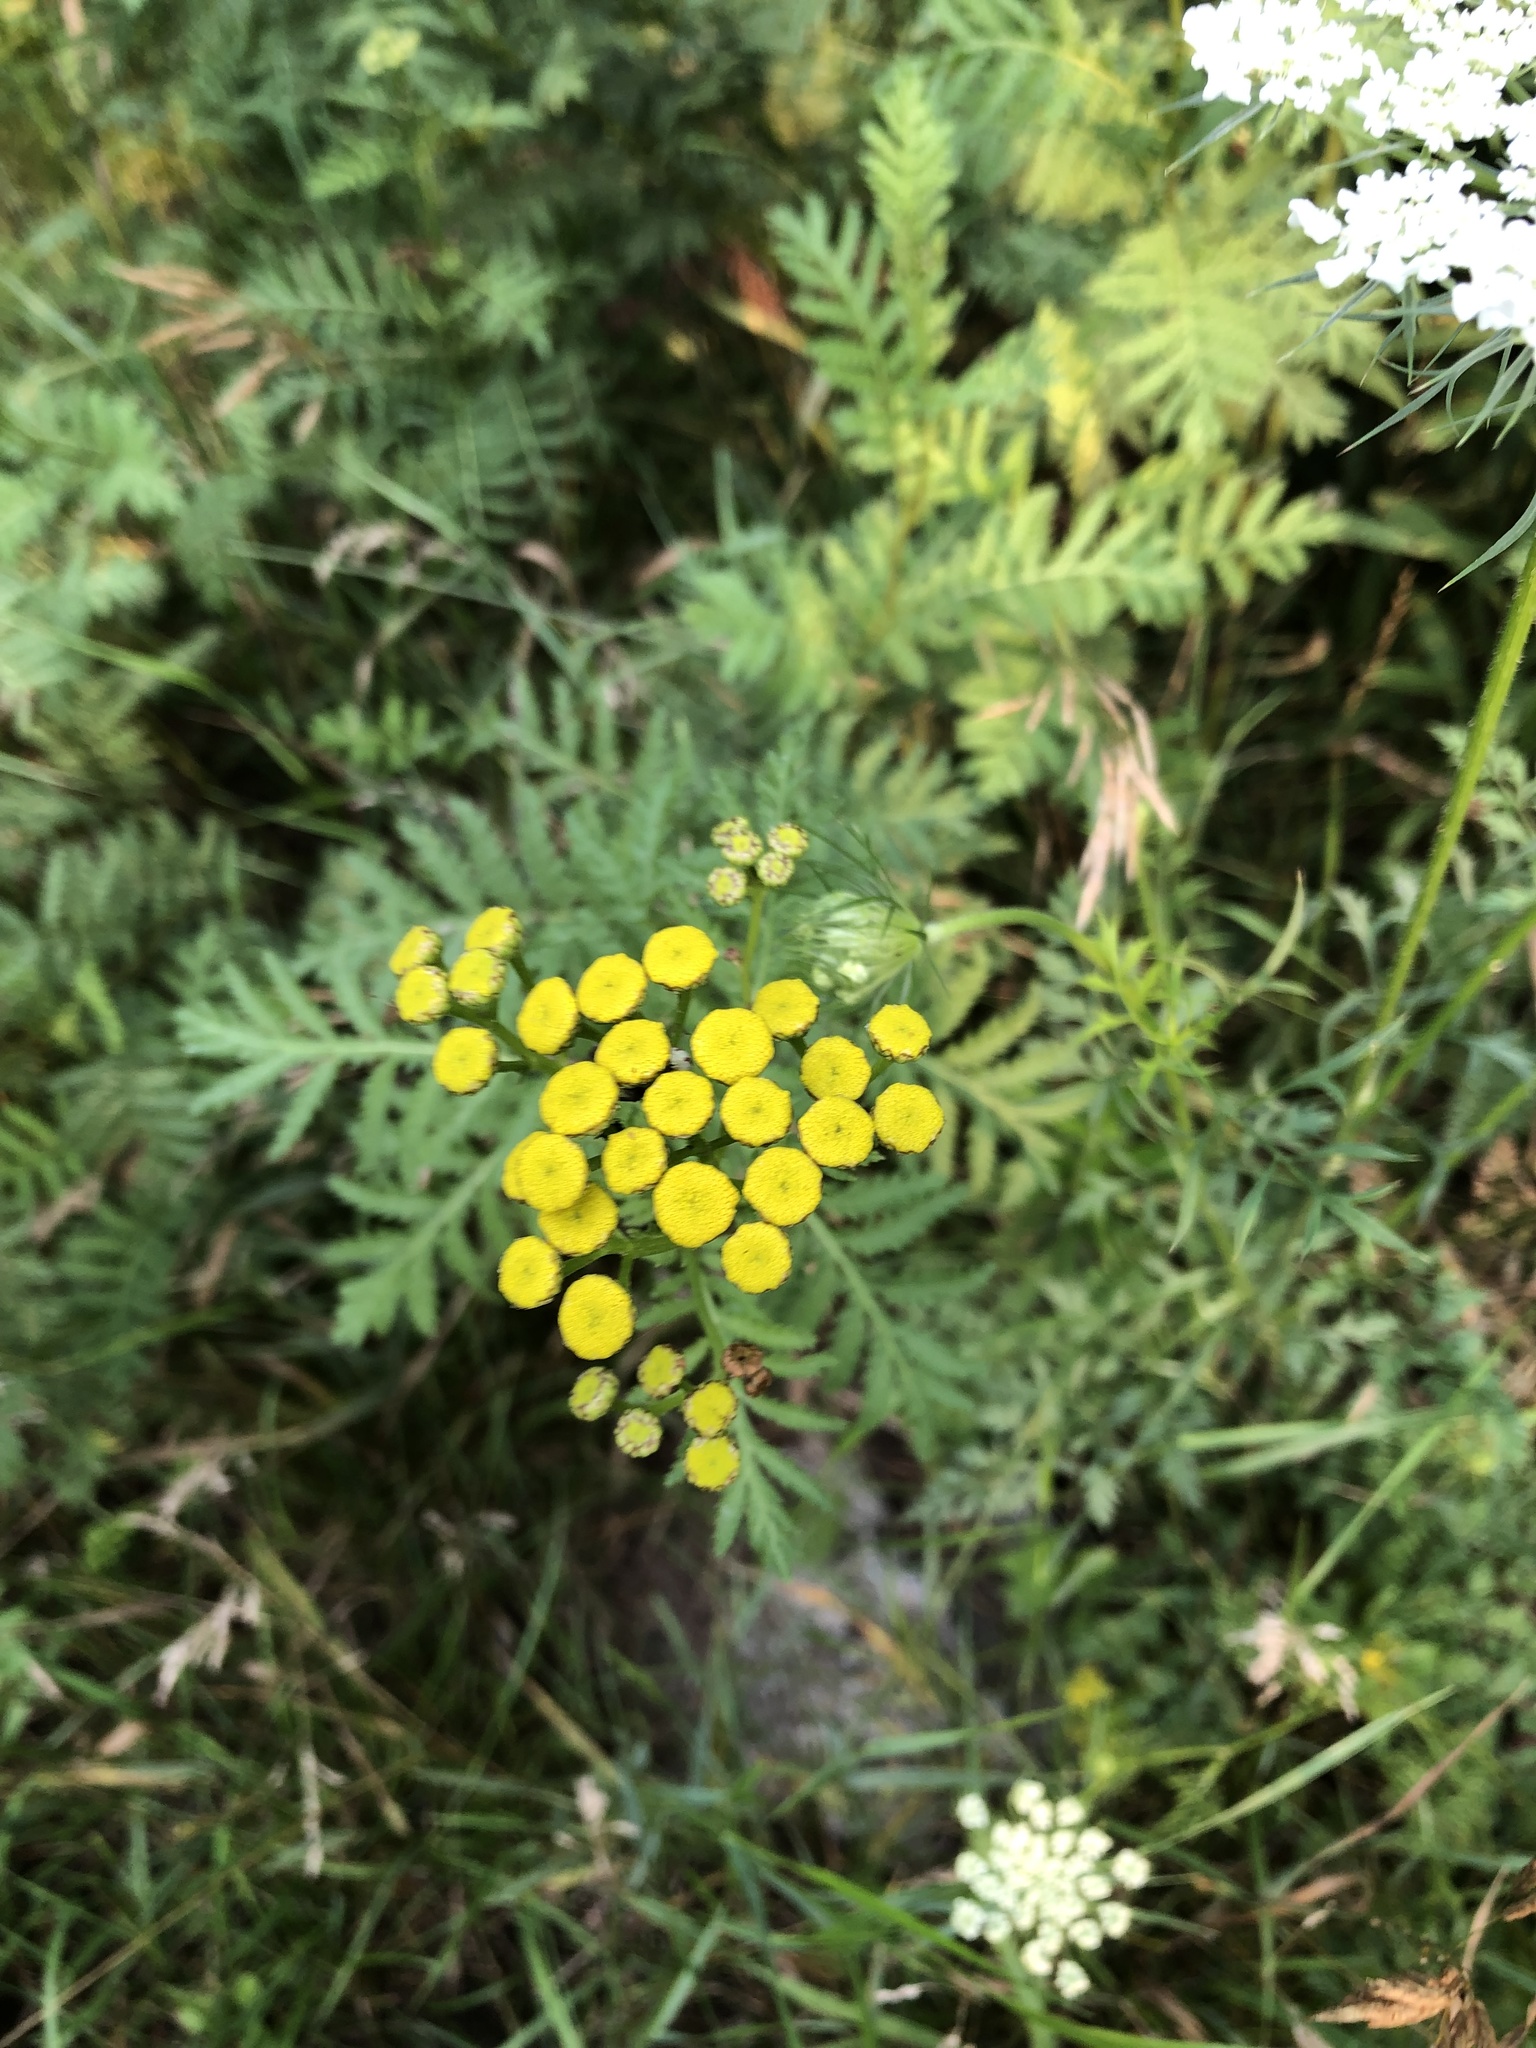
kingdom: Plantae
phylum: Tracheophyta
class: Magnoliopsida
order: Asterales
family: Asteraceae
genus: Tanacetum
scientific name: Tanacetum vulgare
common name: Common tansy
